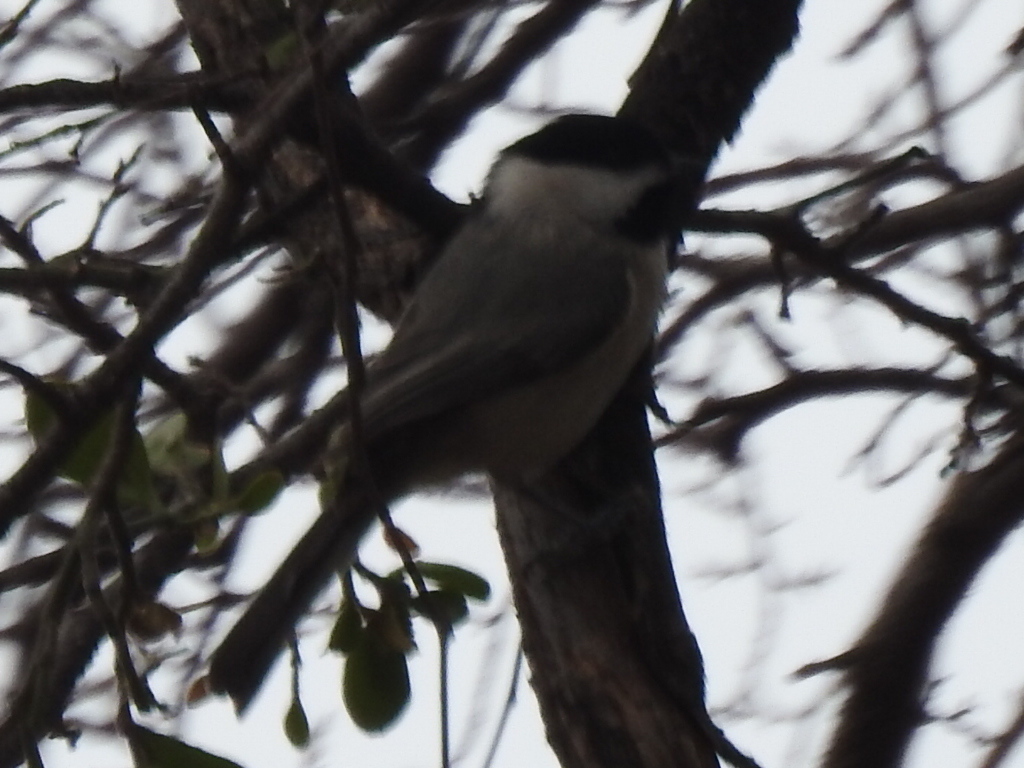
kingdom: Animalia
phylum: Chordata
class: Aves
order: Passeriformes
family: Paridae
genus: Poecile
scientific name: Poecile carolinensis
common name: Carolina chickadee
